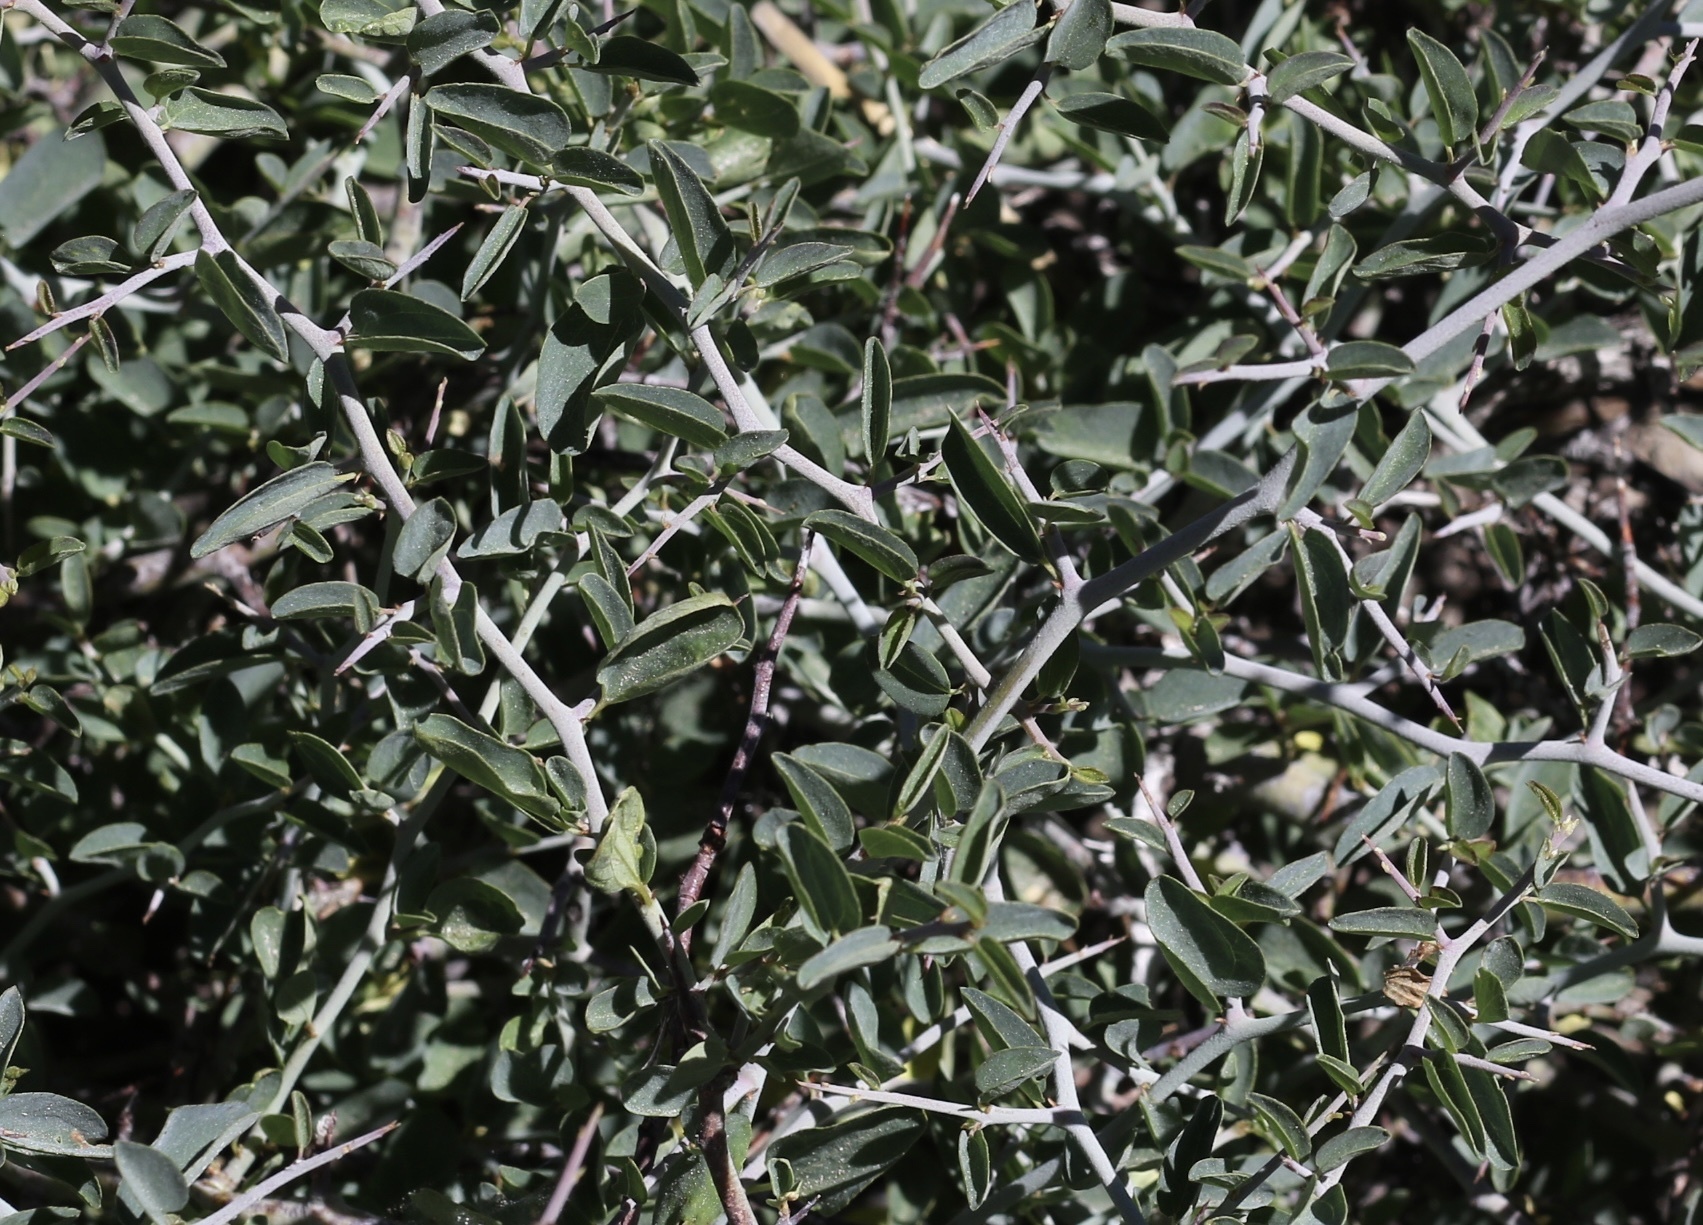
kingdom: Plantae
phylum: Tracheophyta
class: Magnoliopsida
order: Rosales
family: Rhamnaceae
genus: Ceanothus
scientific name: Ceanothus cordulatus
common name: Mountain whitethorn
